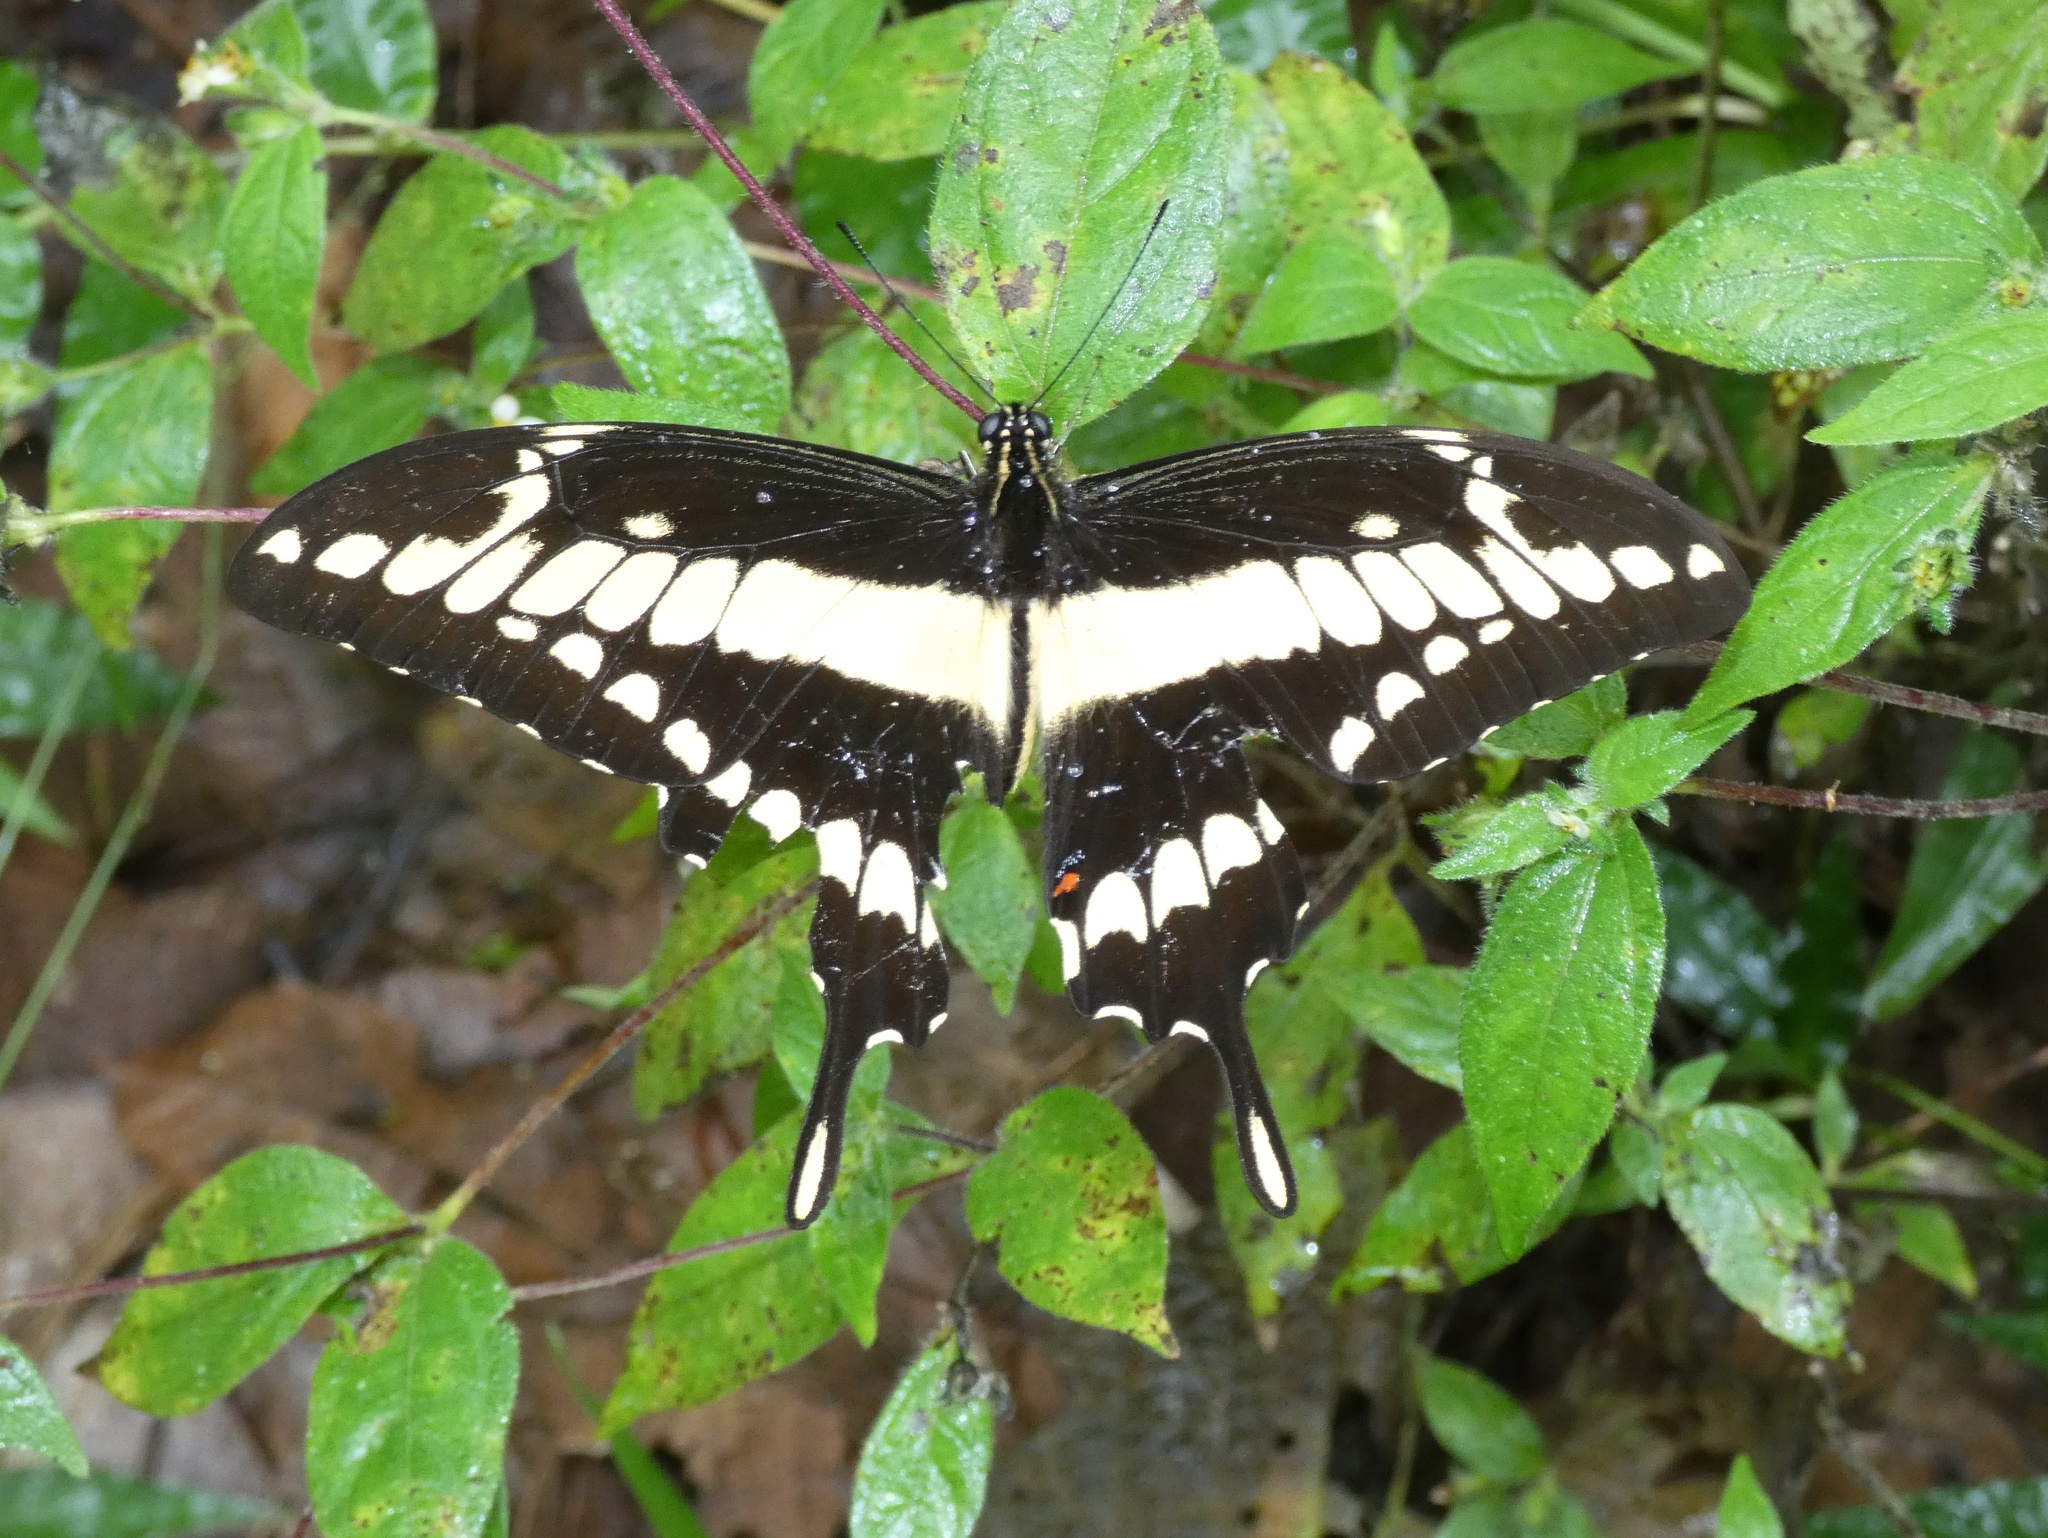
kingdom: Animalia
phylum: Arthropoda
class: Insecta
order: Lepidoptera
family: Papilionidae
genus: Papilio
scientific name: Papilio thoas
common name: King swallowtail
